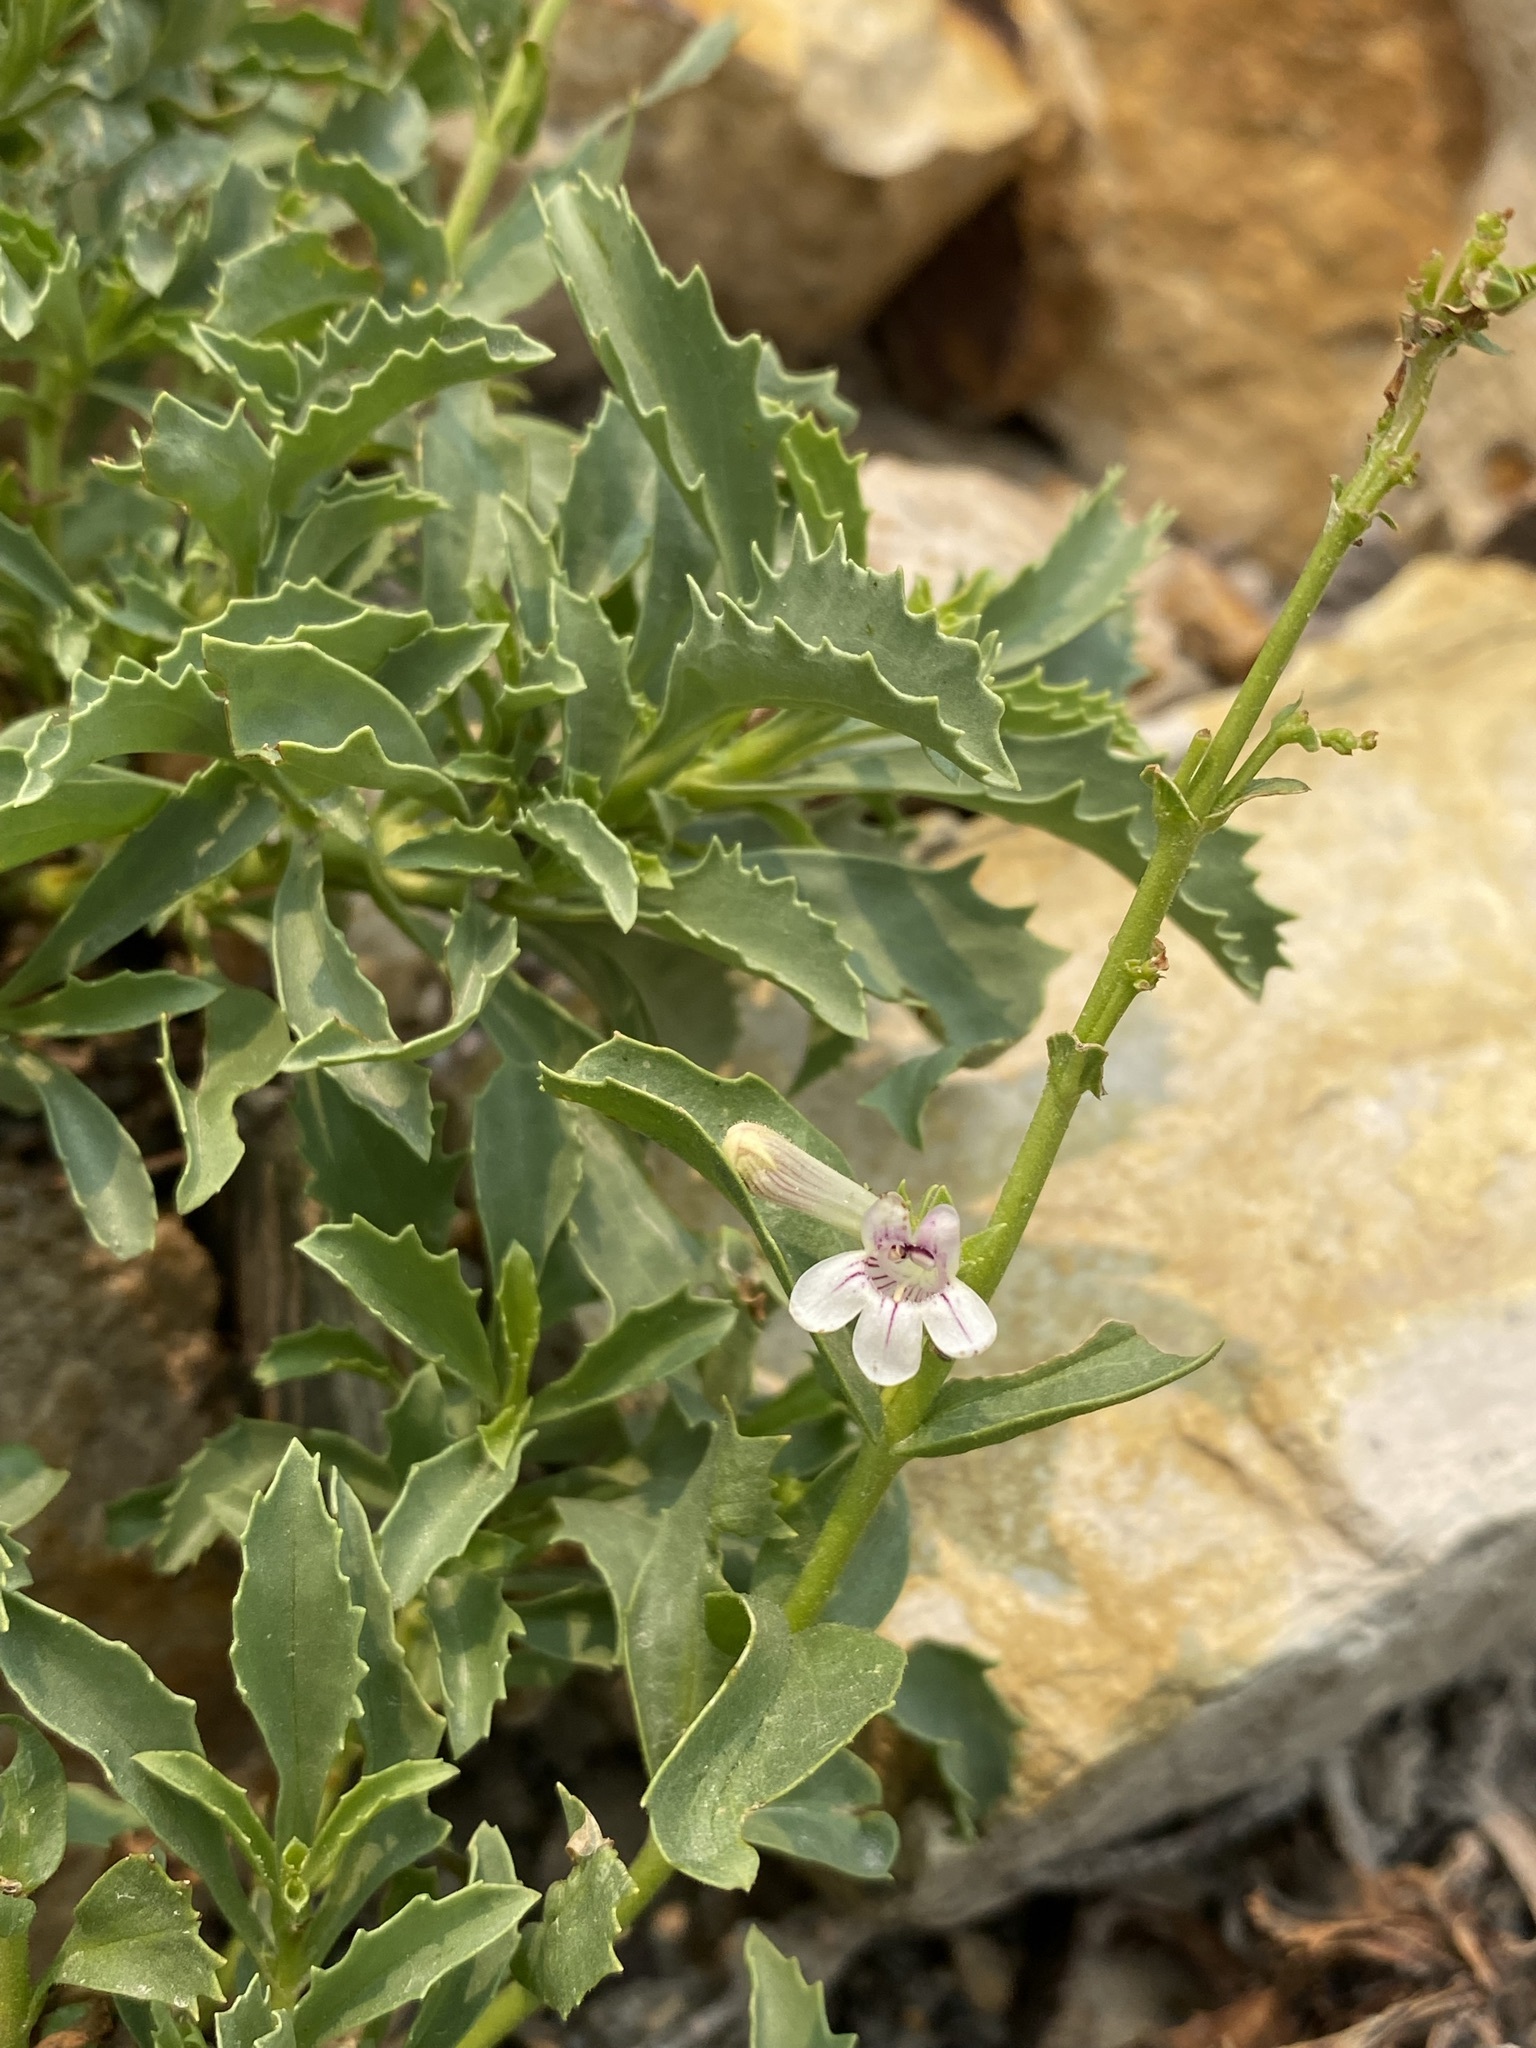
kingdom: Plantae
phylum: Tracheophyta
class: Magnoliopsida
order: Lamiales
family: Plantaginaceae
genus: Penstemon
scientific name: Penstemon deustus
